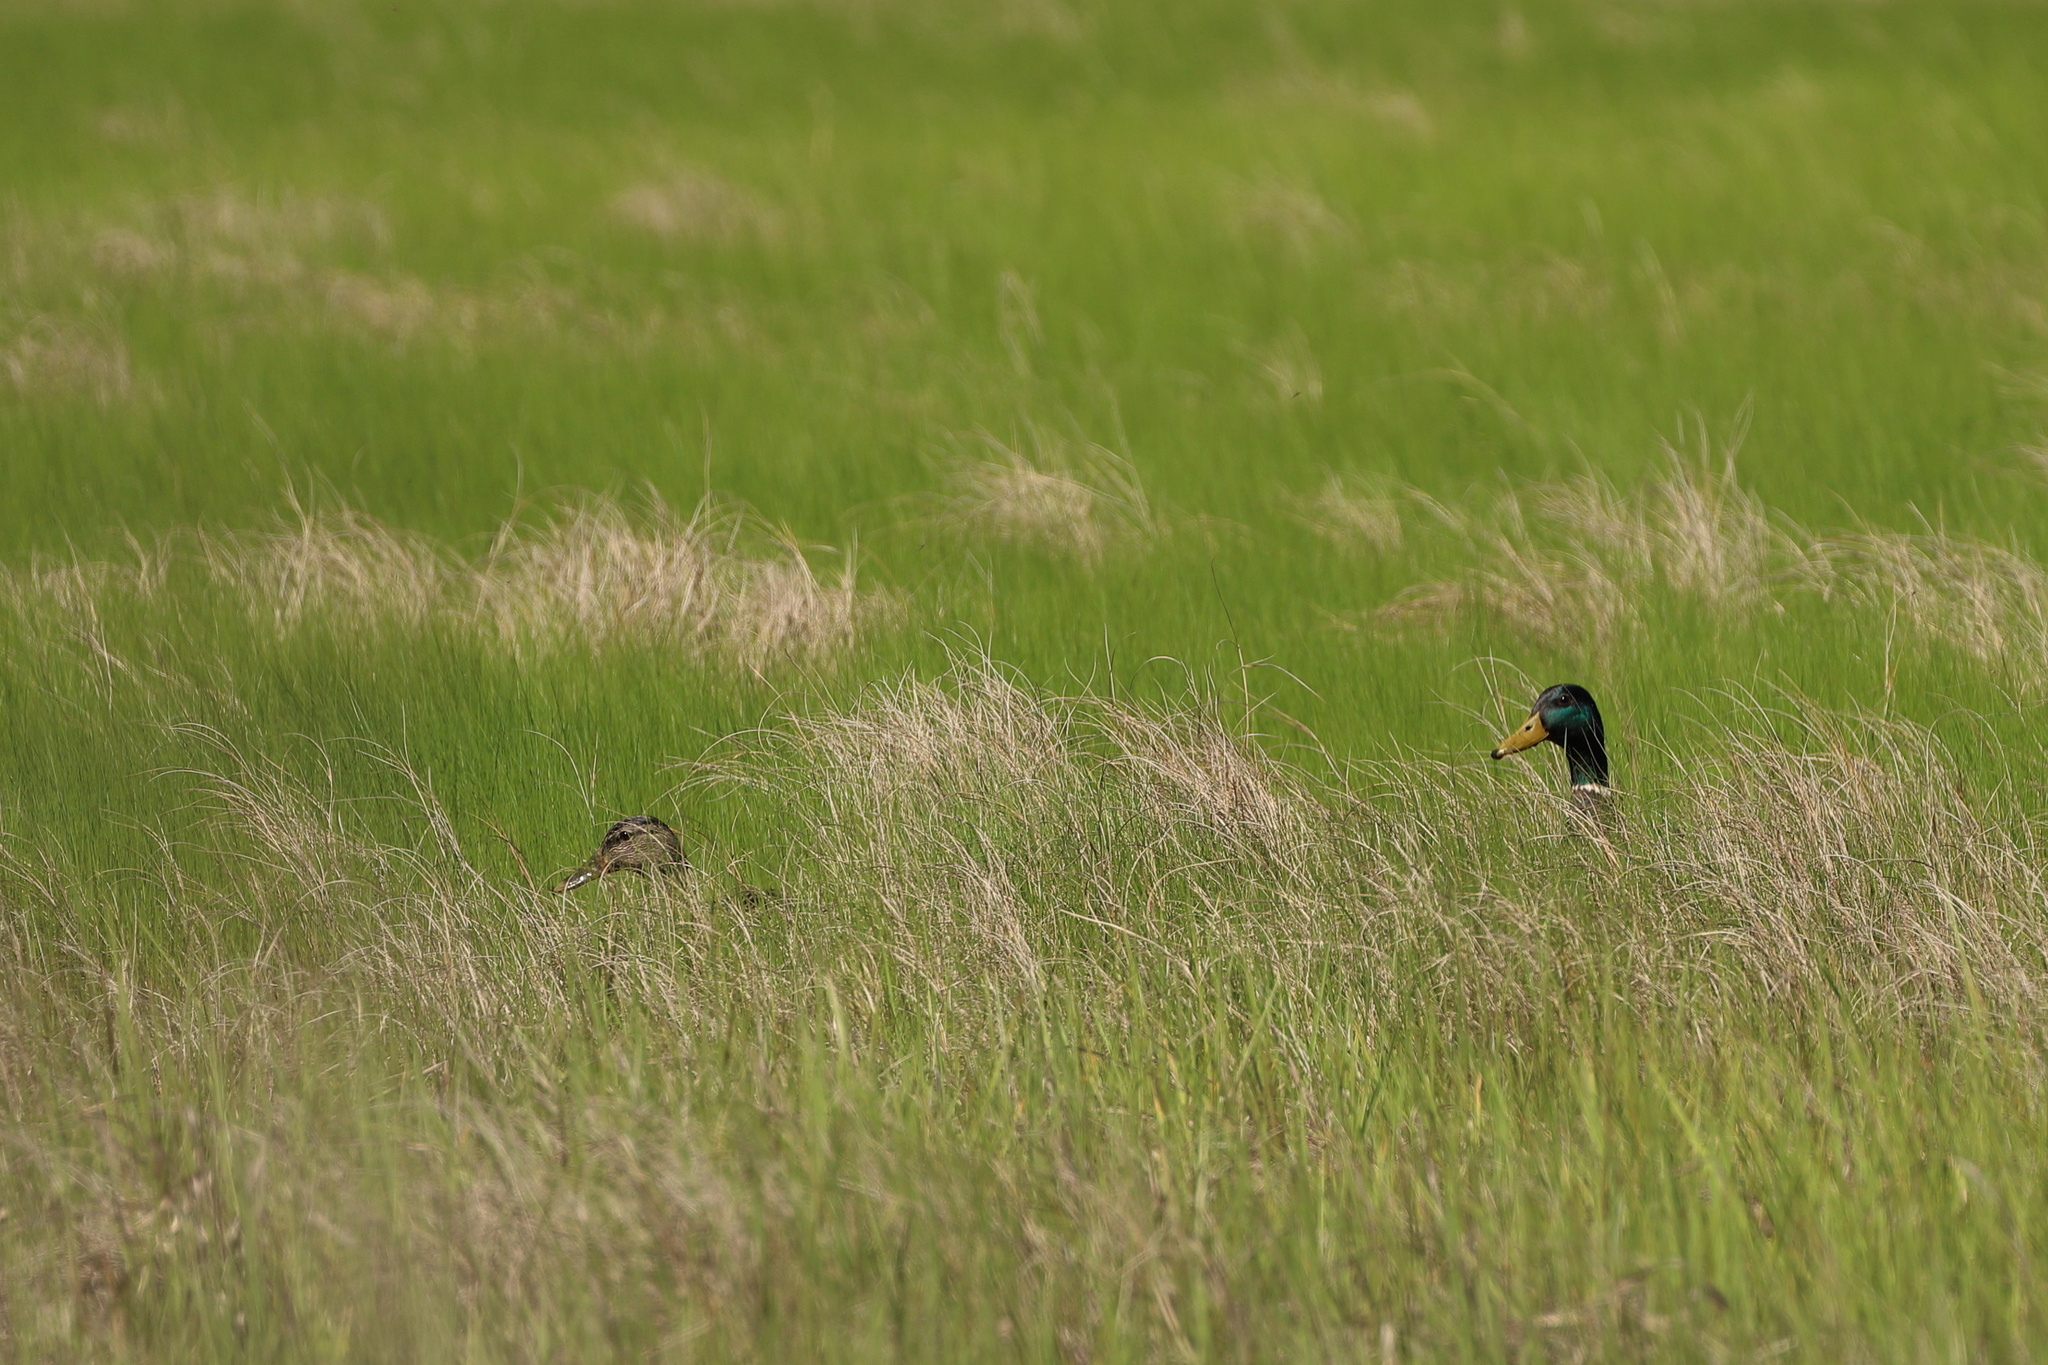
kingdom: Animalia
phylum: Chordata
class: Aves
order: Anseriformes
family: Anatidae
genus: Anas
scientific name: Anas platyrhynchos
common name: Mallard
